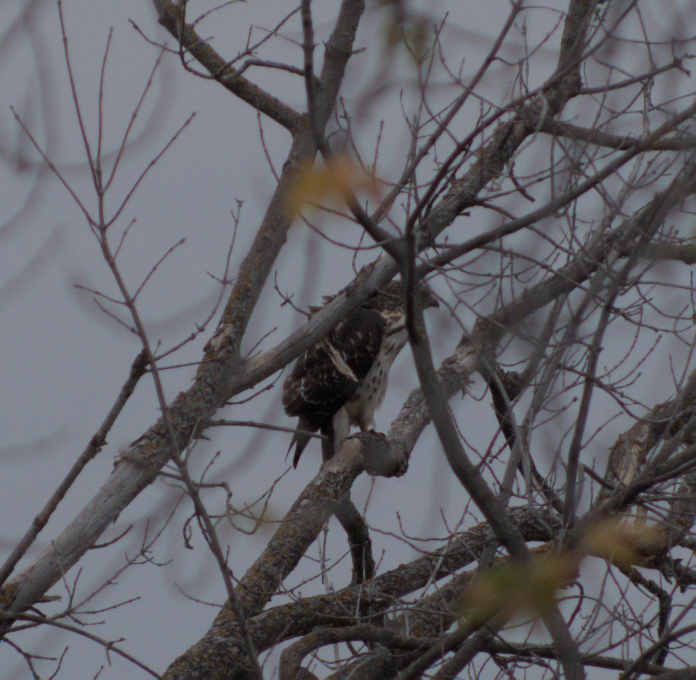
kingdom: Animalia
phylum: Chordata
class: Aves
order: Accipitriformes
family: Accipitridae
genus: Buteo
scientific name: Buteo platypterus
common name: Broad-winged hawk
